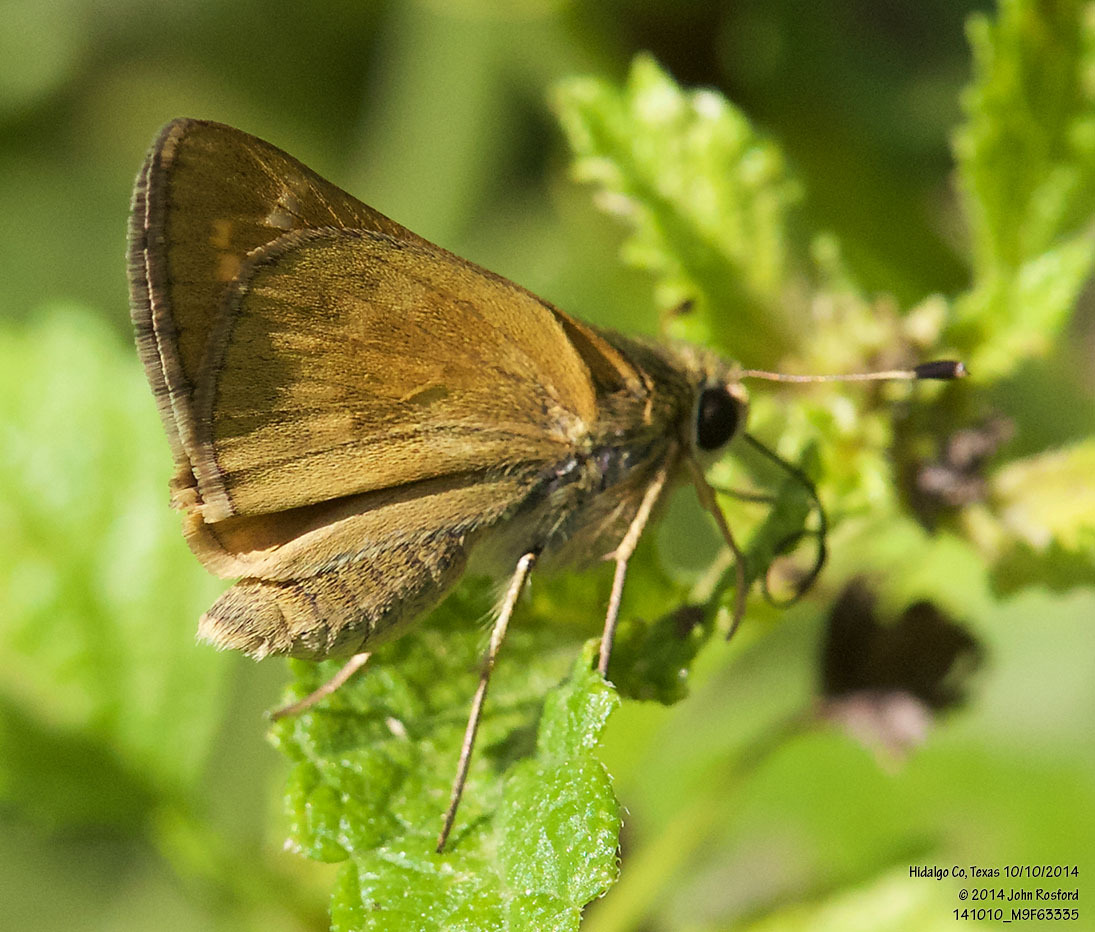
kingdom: Animalia
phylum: Arthropoda
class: Insecta
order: Lepidoptera
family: Hesperiidae
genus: Atalopedes
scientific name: Atalopedes
